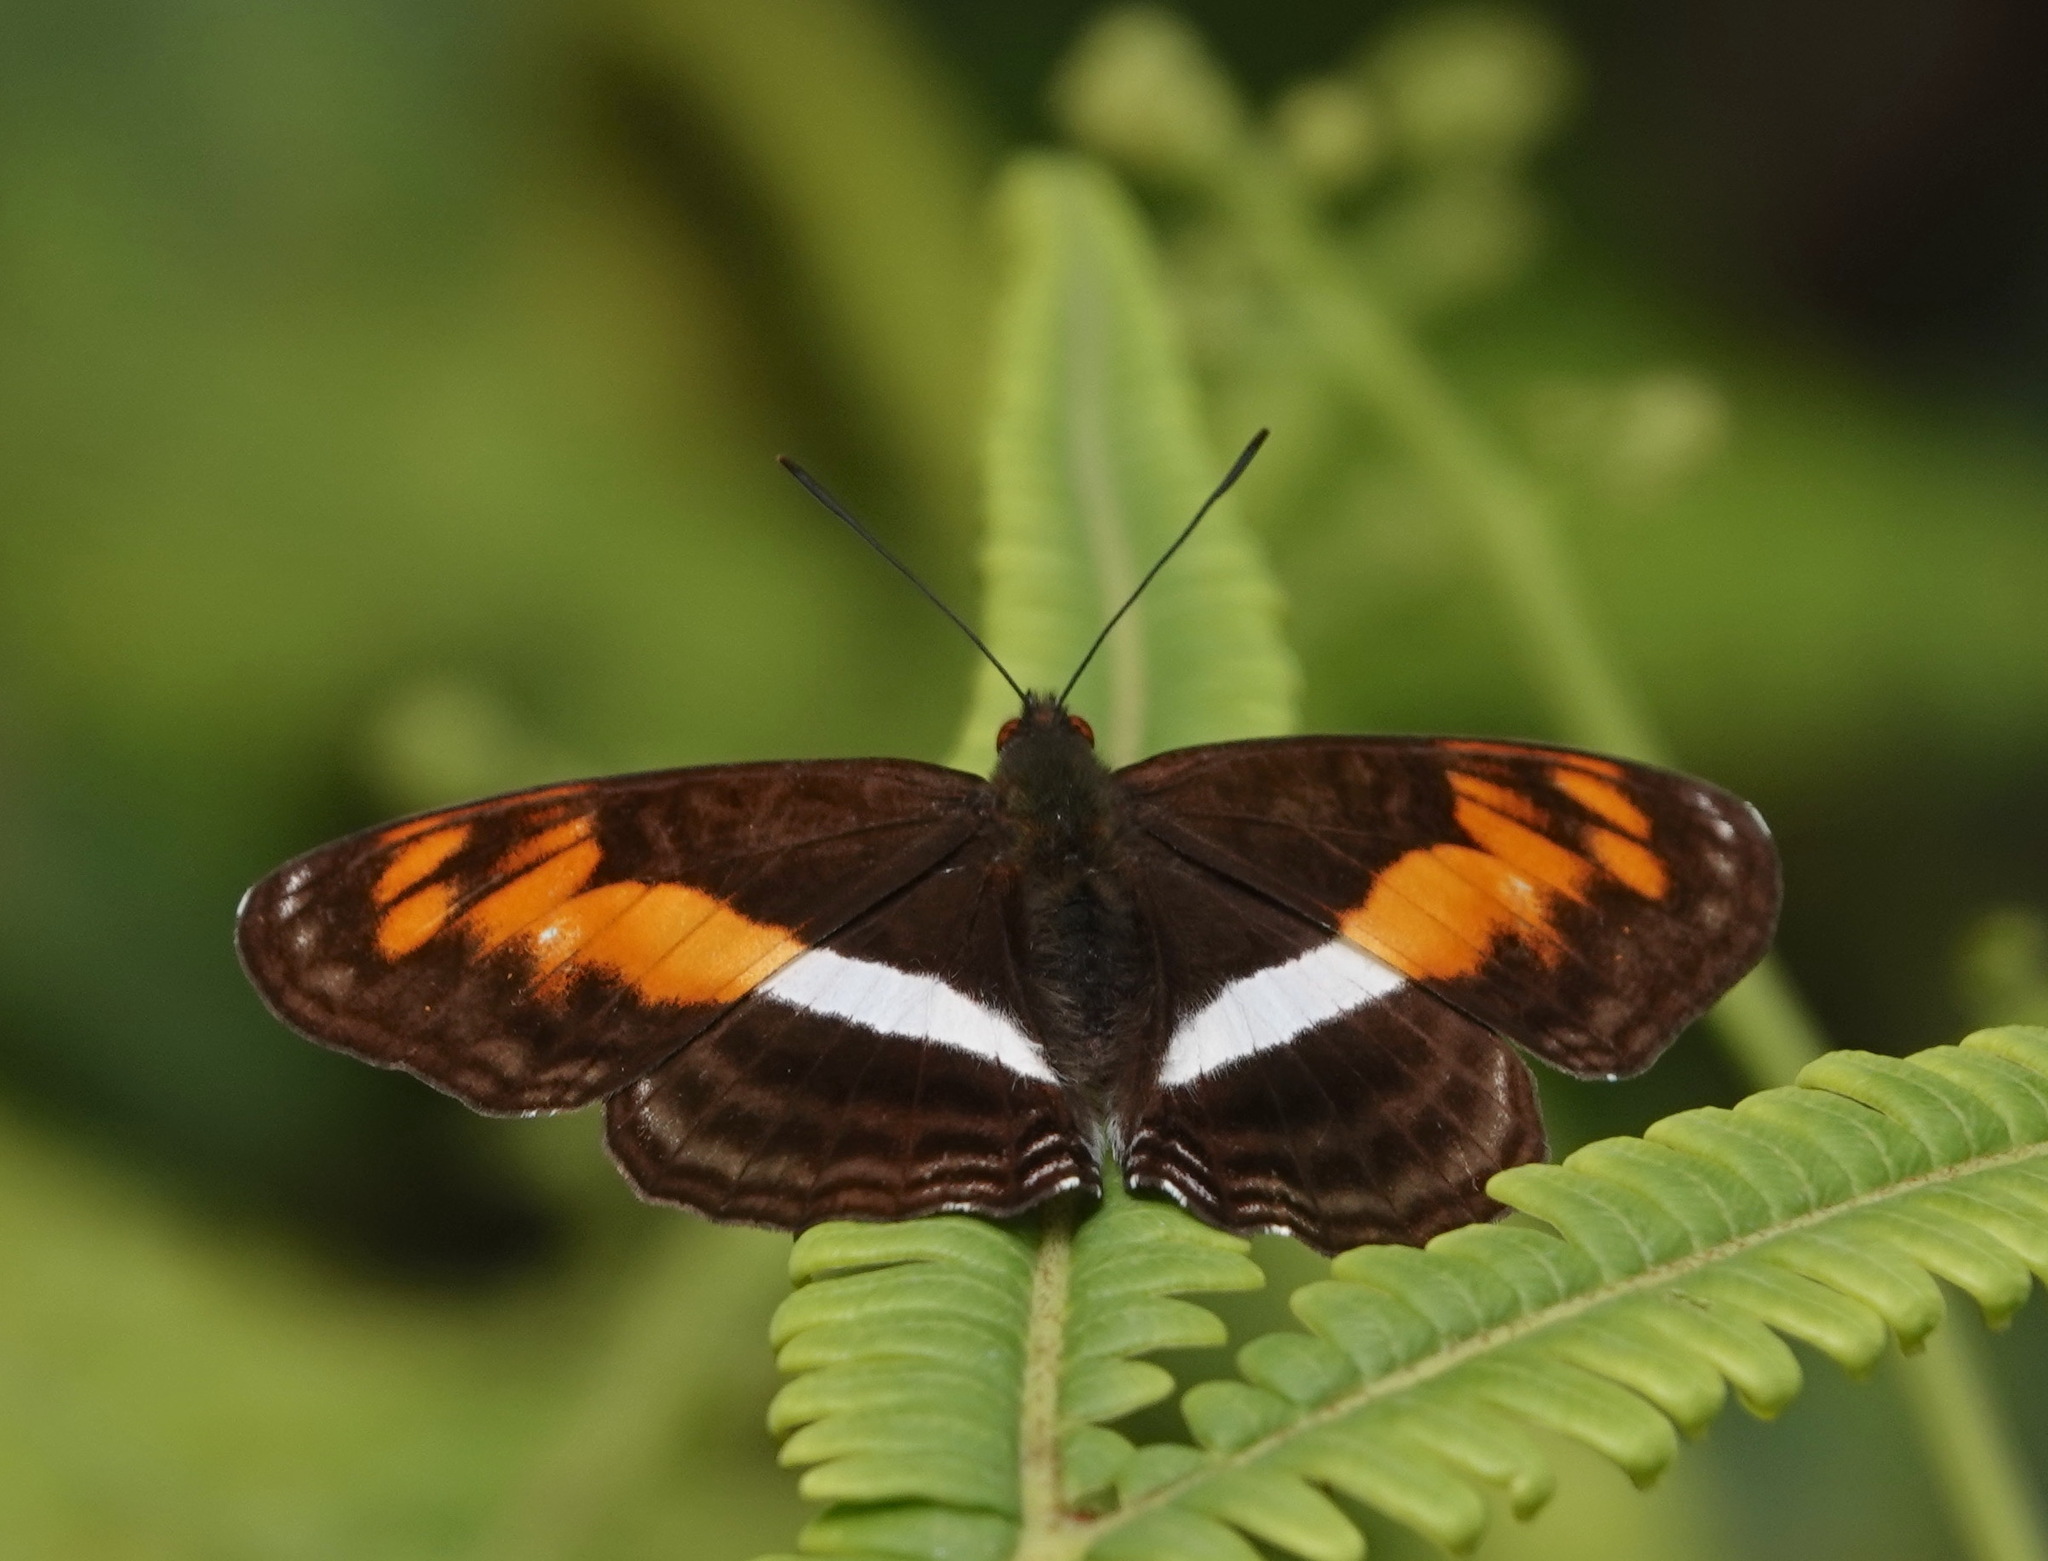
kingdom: Animalia
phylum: Arthropoda
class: Insecta
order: Lepidoptera
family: Nymphalidae
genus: Limenitis
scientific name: Limenitis
